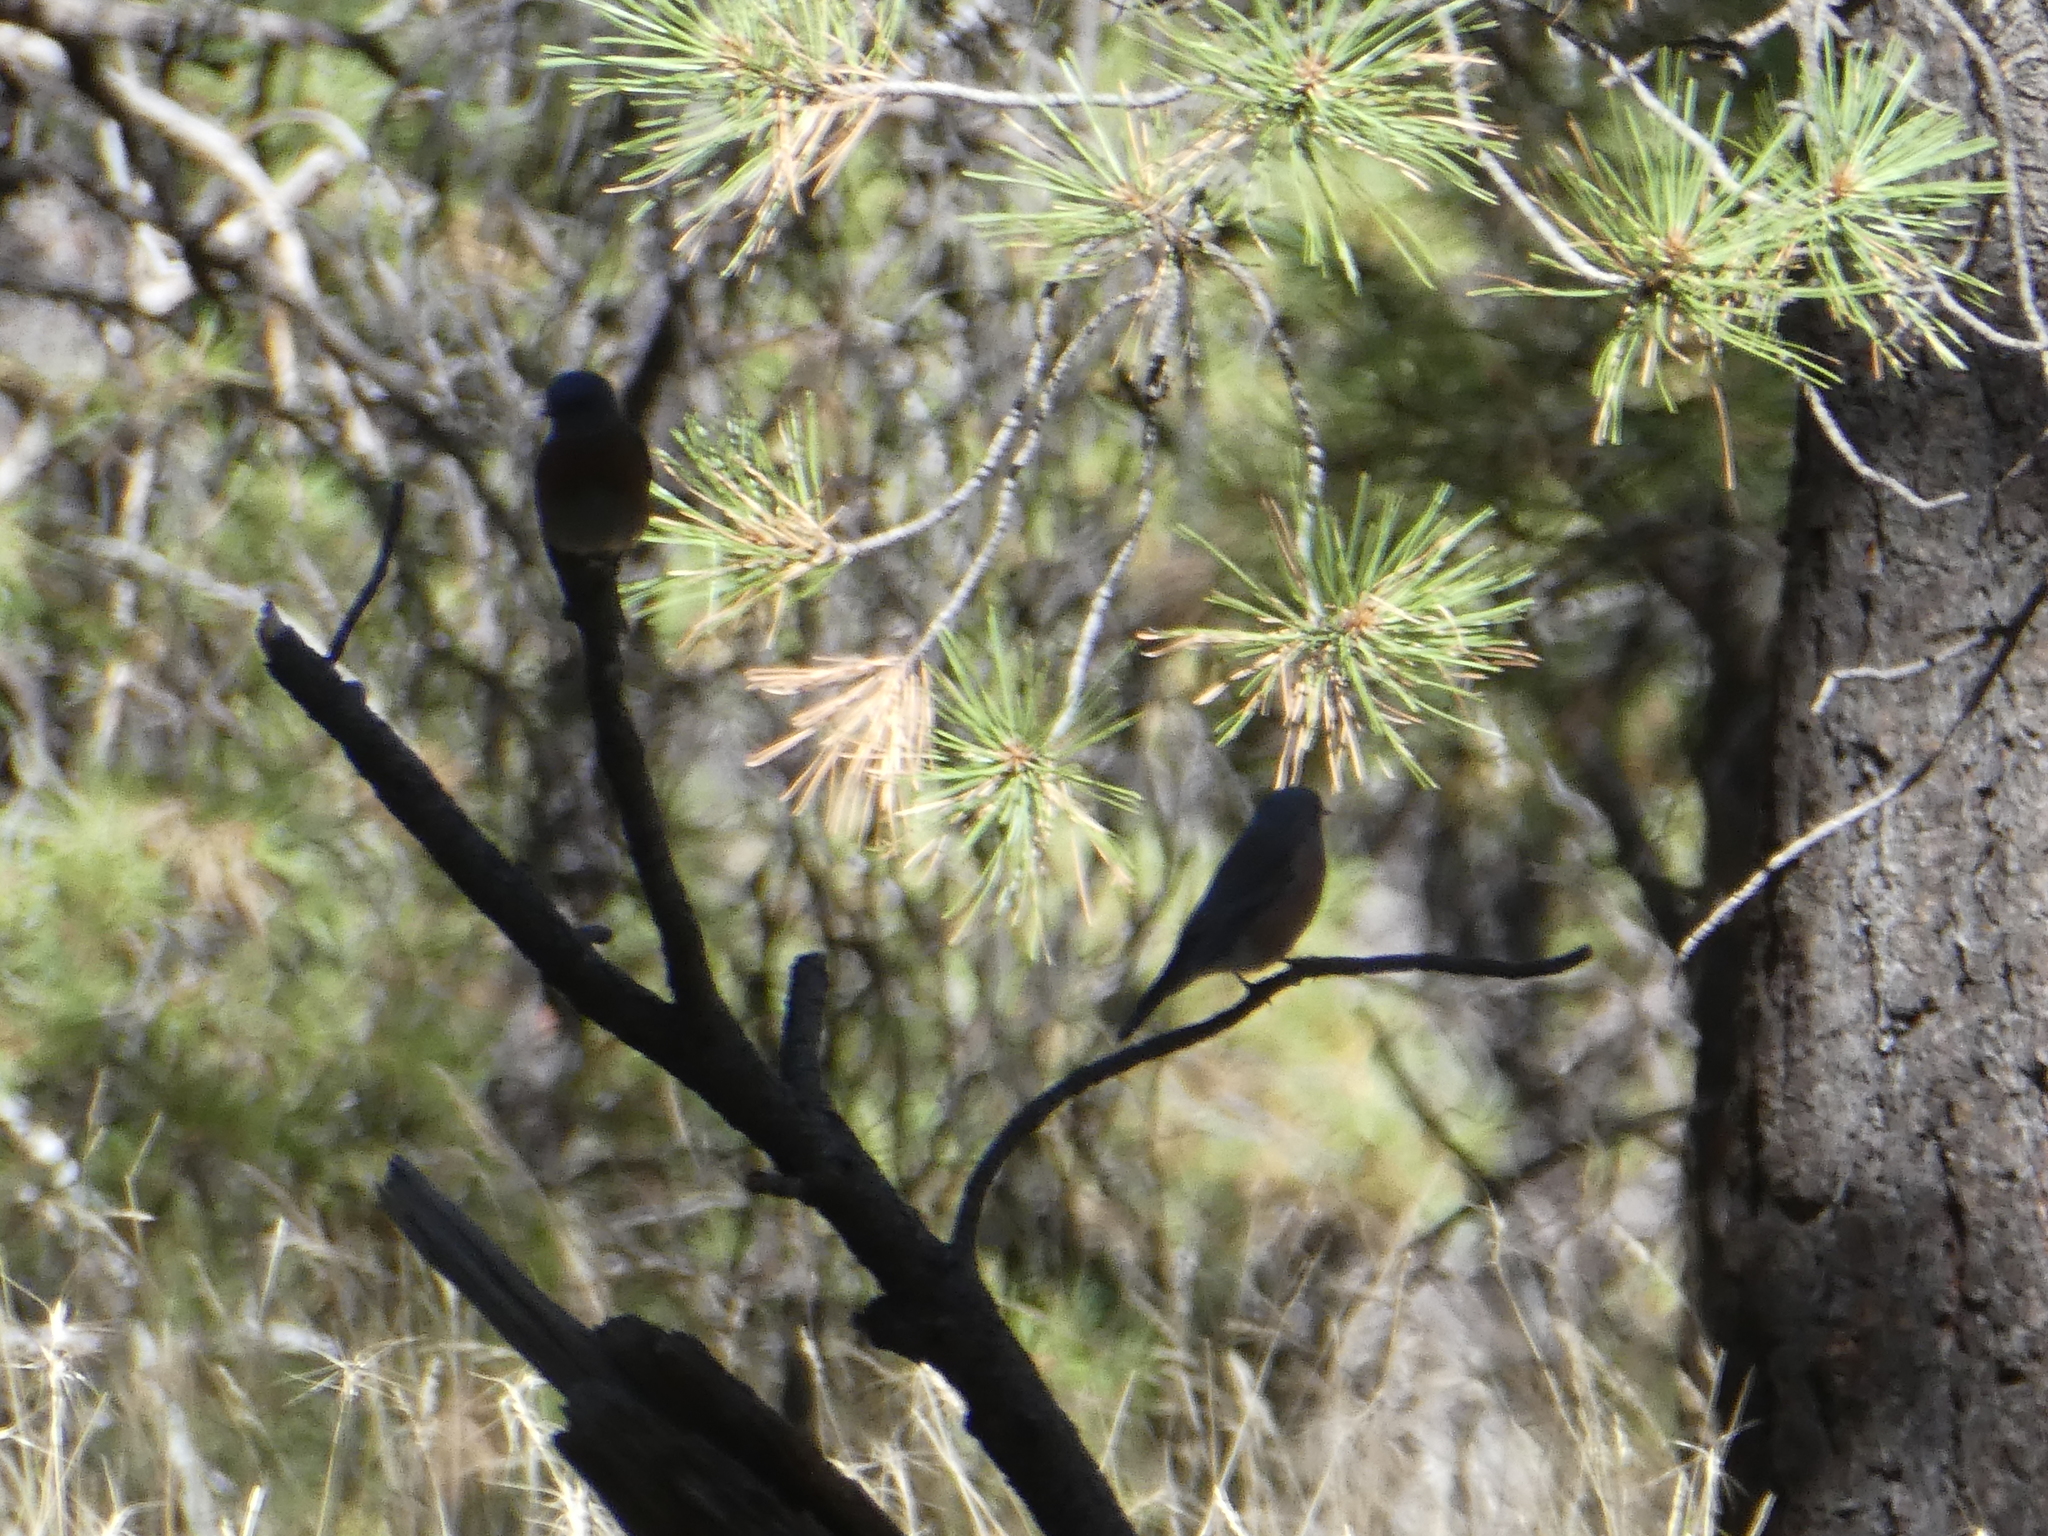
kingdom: Animalia
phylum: Chordata
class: Aves
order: Passeriformes
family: Turdidae
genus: Sialia
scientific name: Sialia mexicana
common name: Western bluebird
